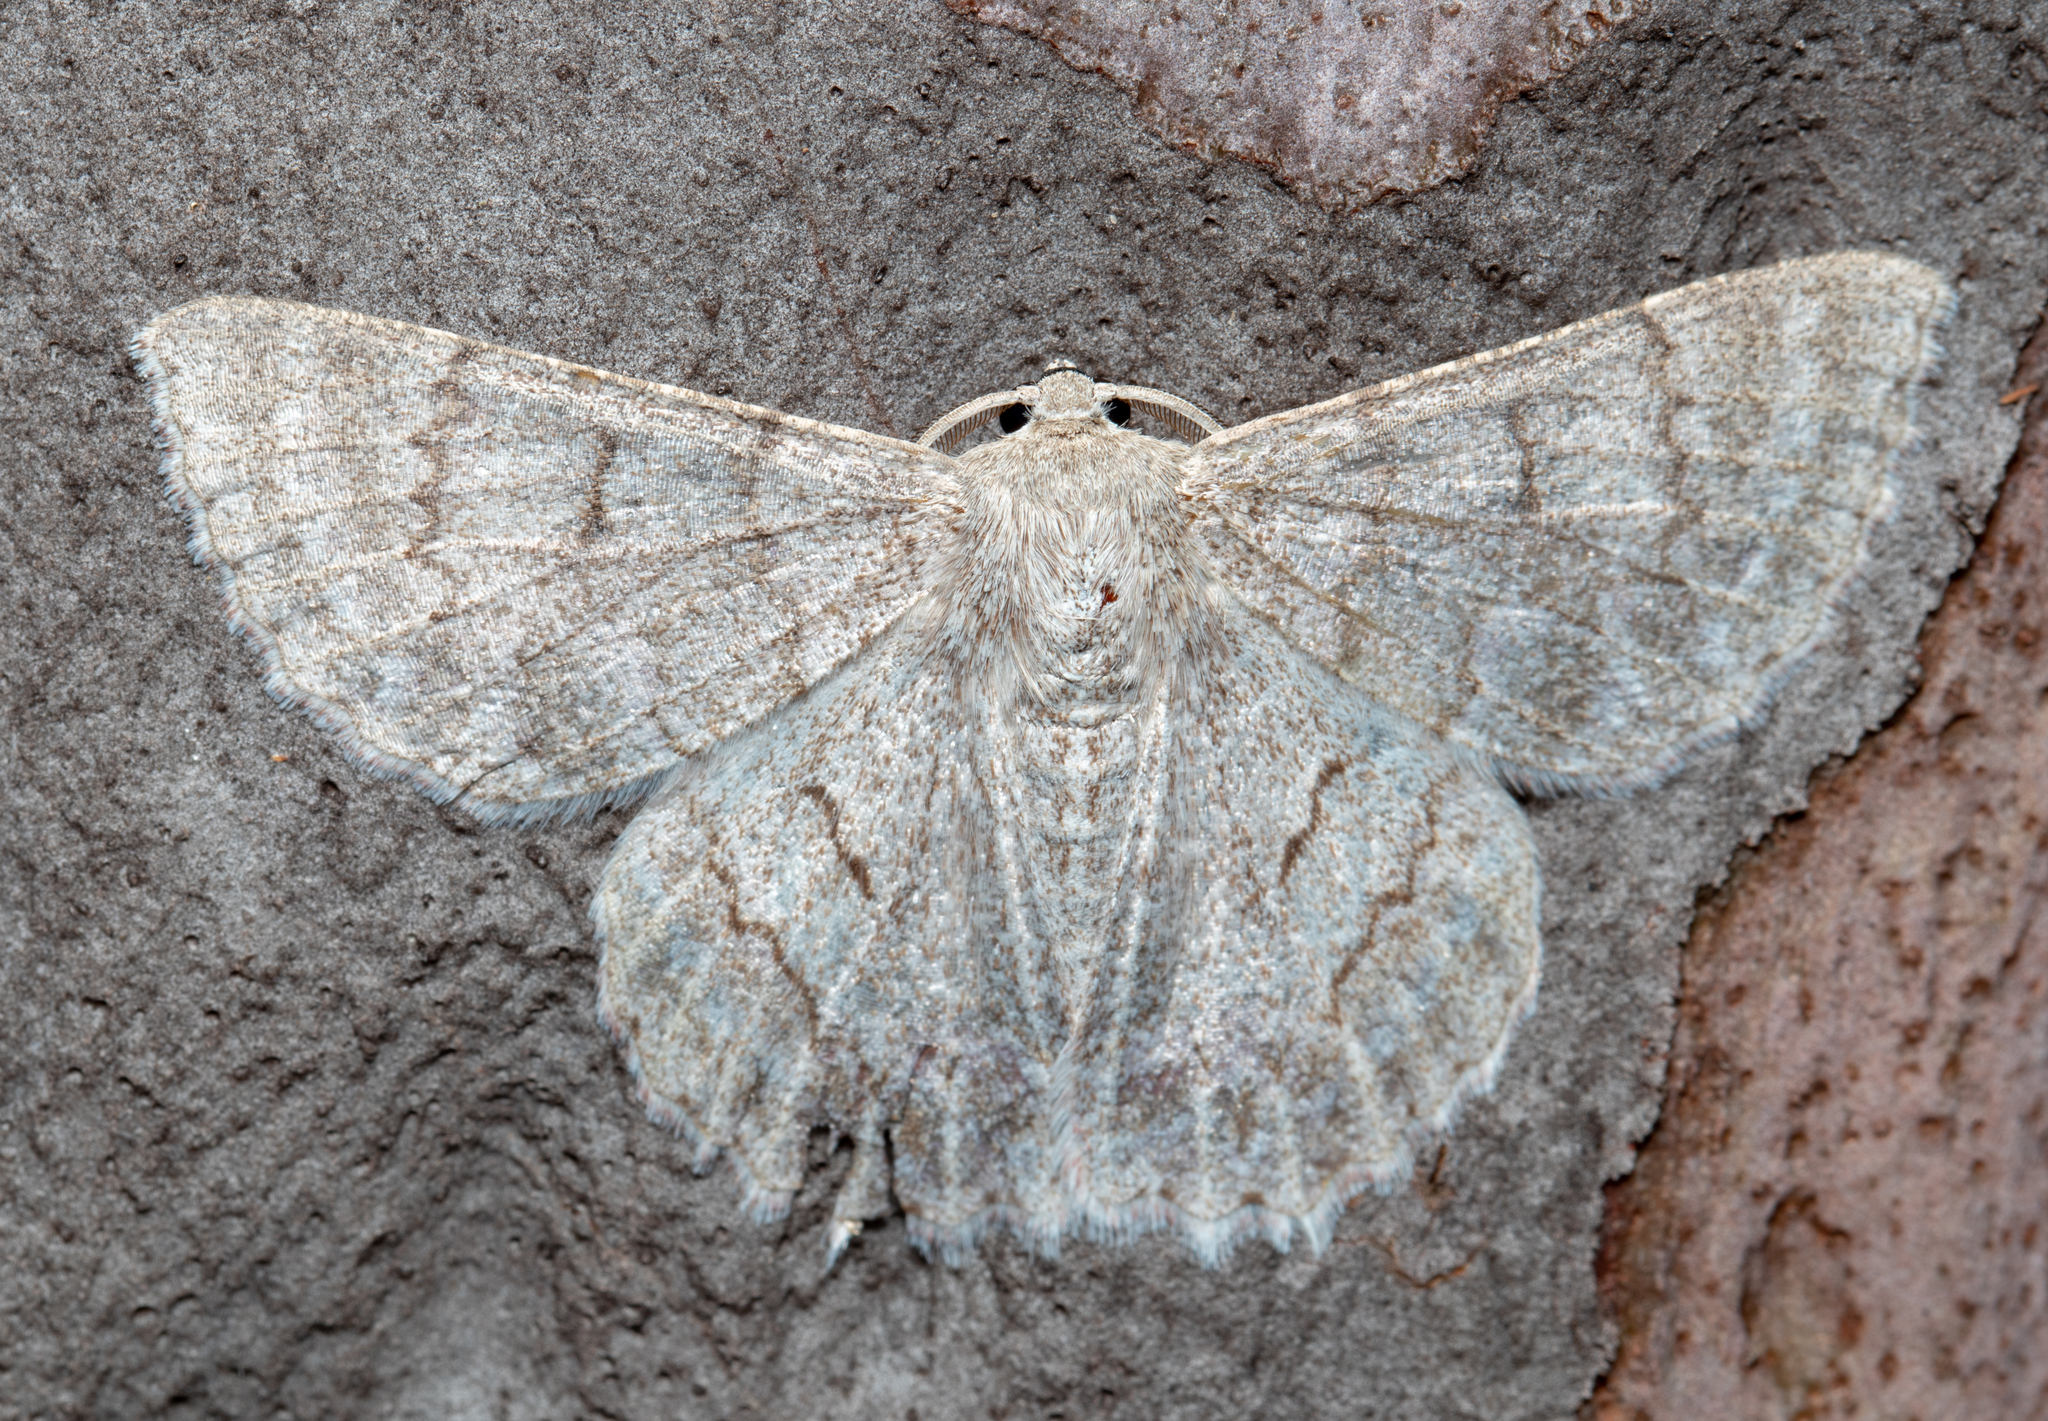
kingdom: Animalia
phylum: Arthropoda
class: Insecta
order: Lepidoptera
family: Geometridae
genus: Crypsiphona
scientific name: Crypsiphona ocultaria
